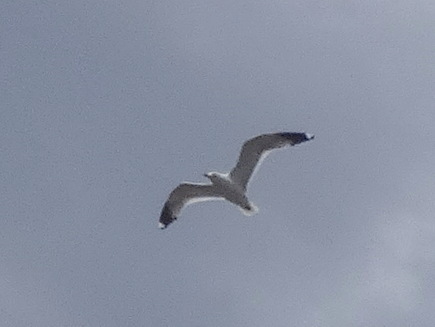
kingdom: Animalia
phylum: Chordata
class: Aves
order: Charadriiformes
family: Laridae
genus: Larus
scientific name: Larus delawarensis
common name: Ring-billed gull
